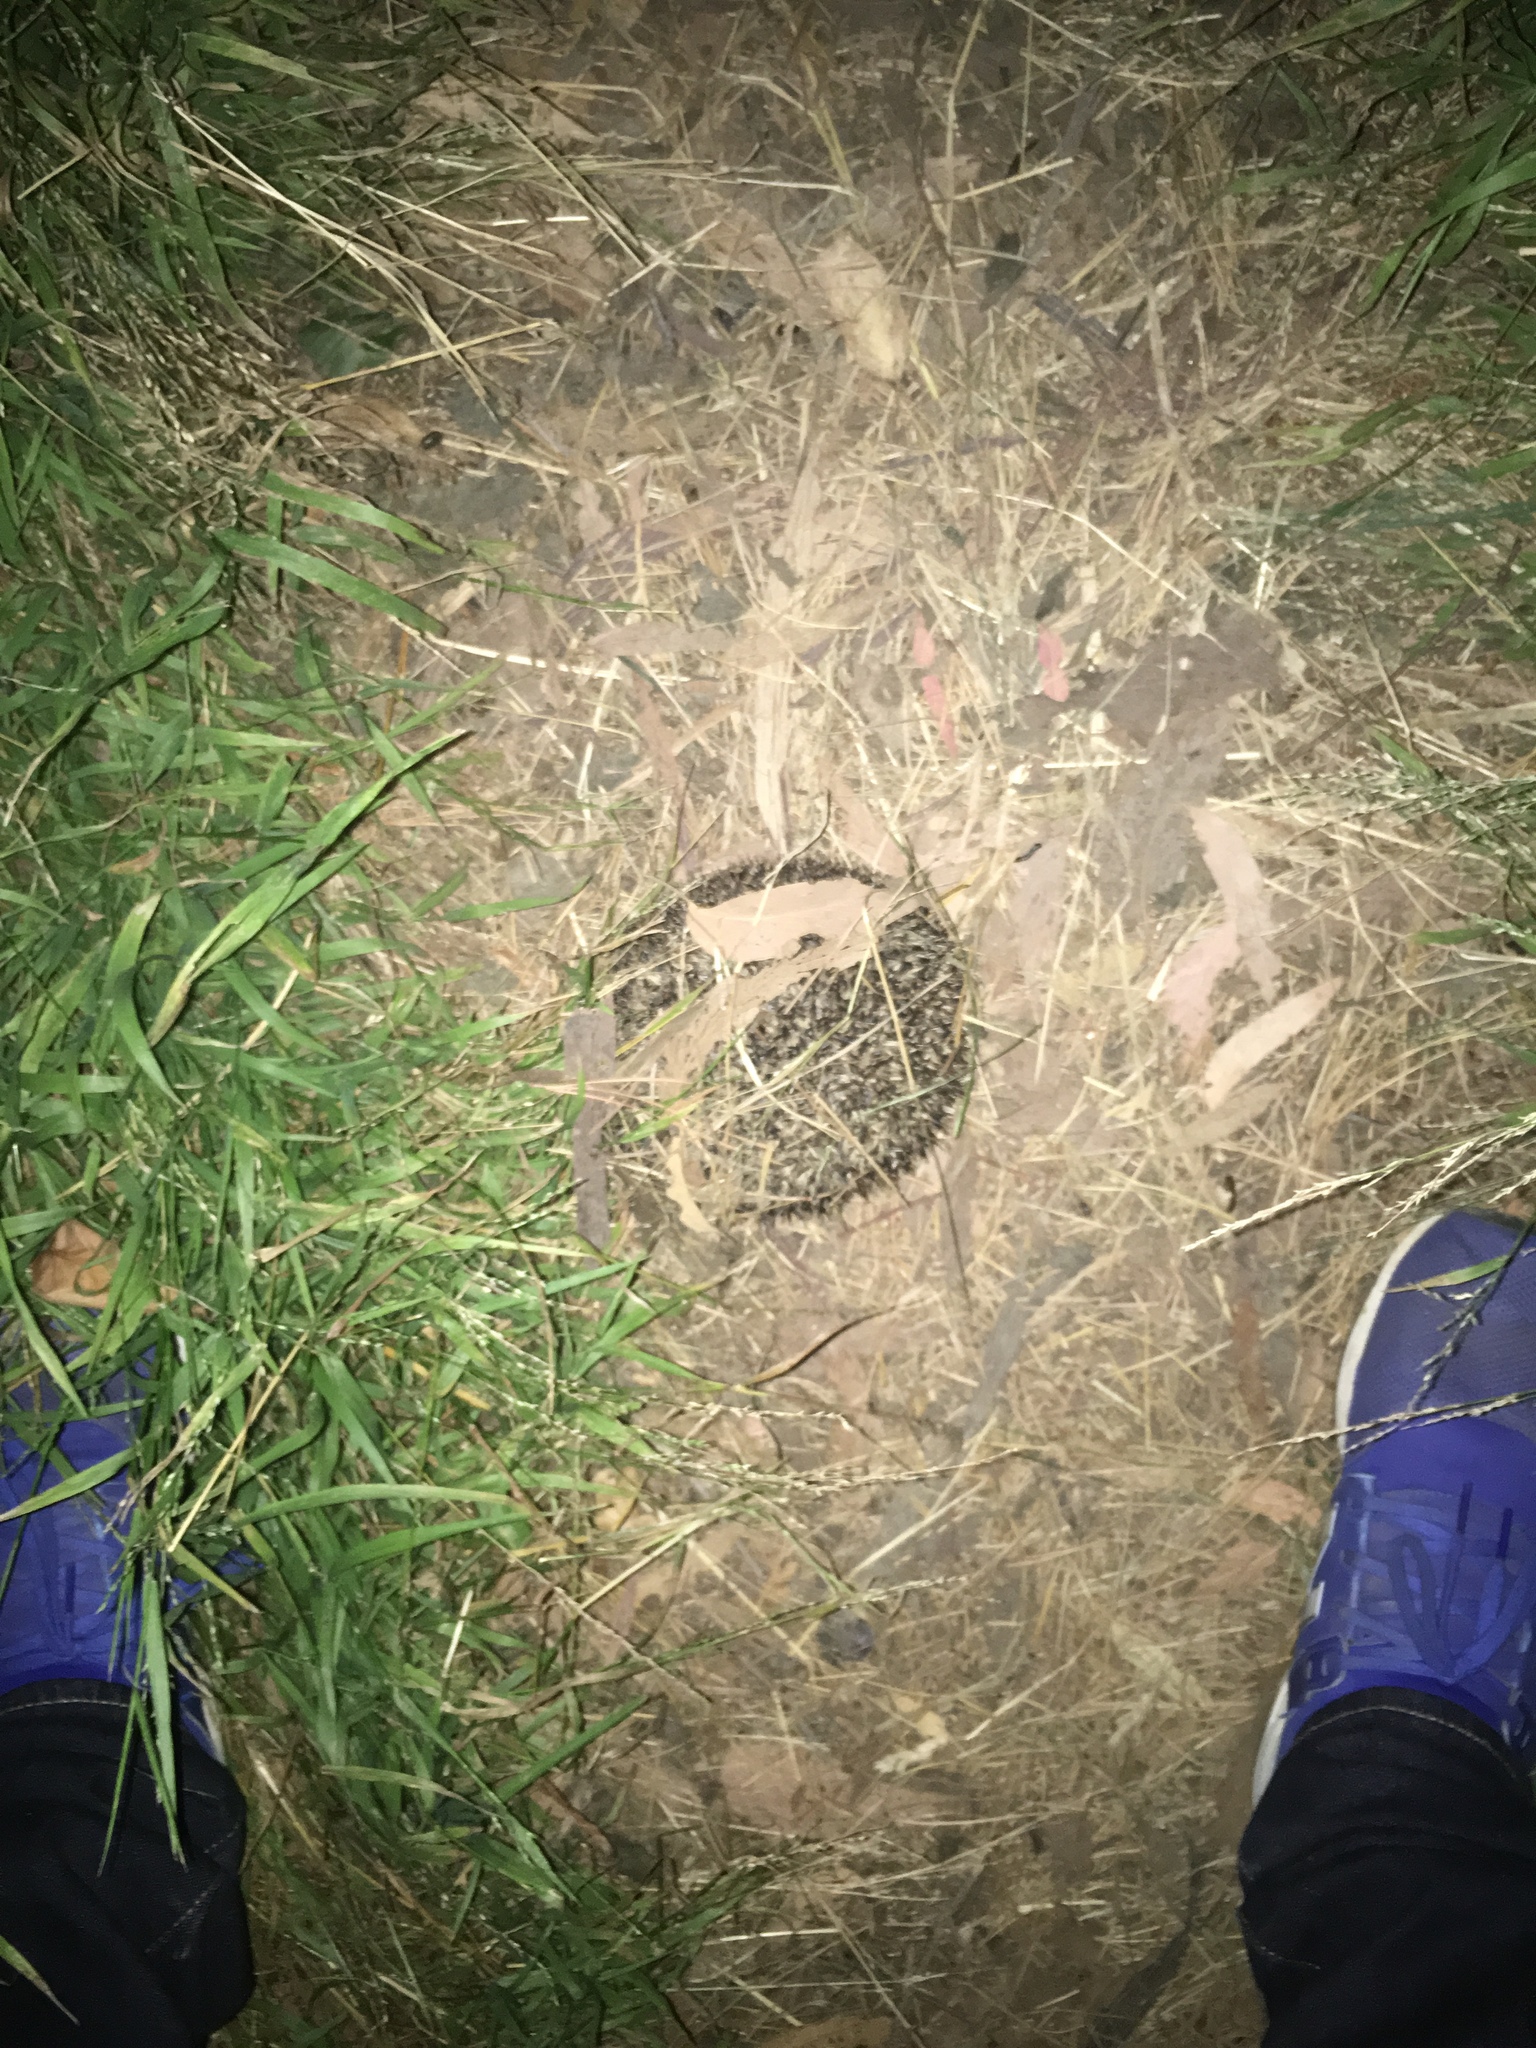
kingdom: Animalia
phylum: Chordata
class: Mammalia
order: Erinaceomorpha
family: Erinaceidae
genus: Erinaceus
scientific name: Erinaceus europaeus
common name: West european hedgehog
